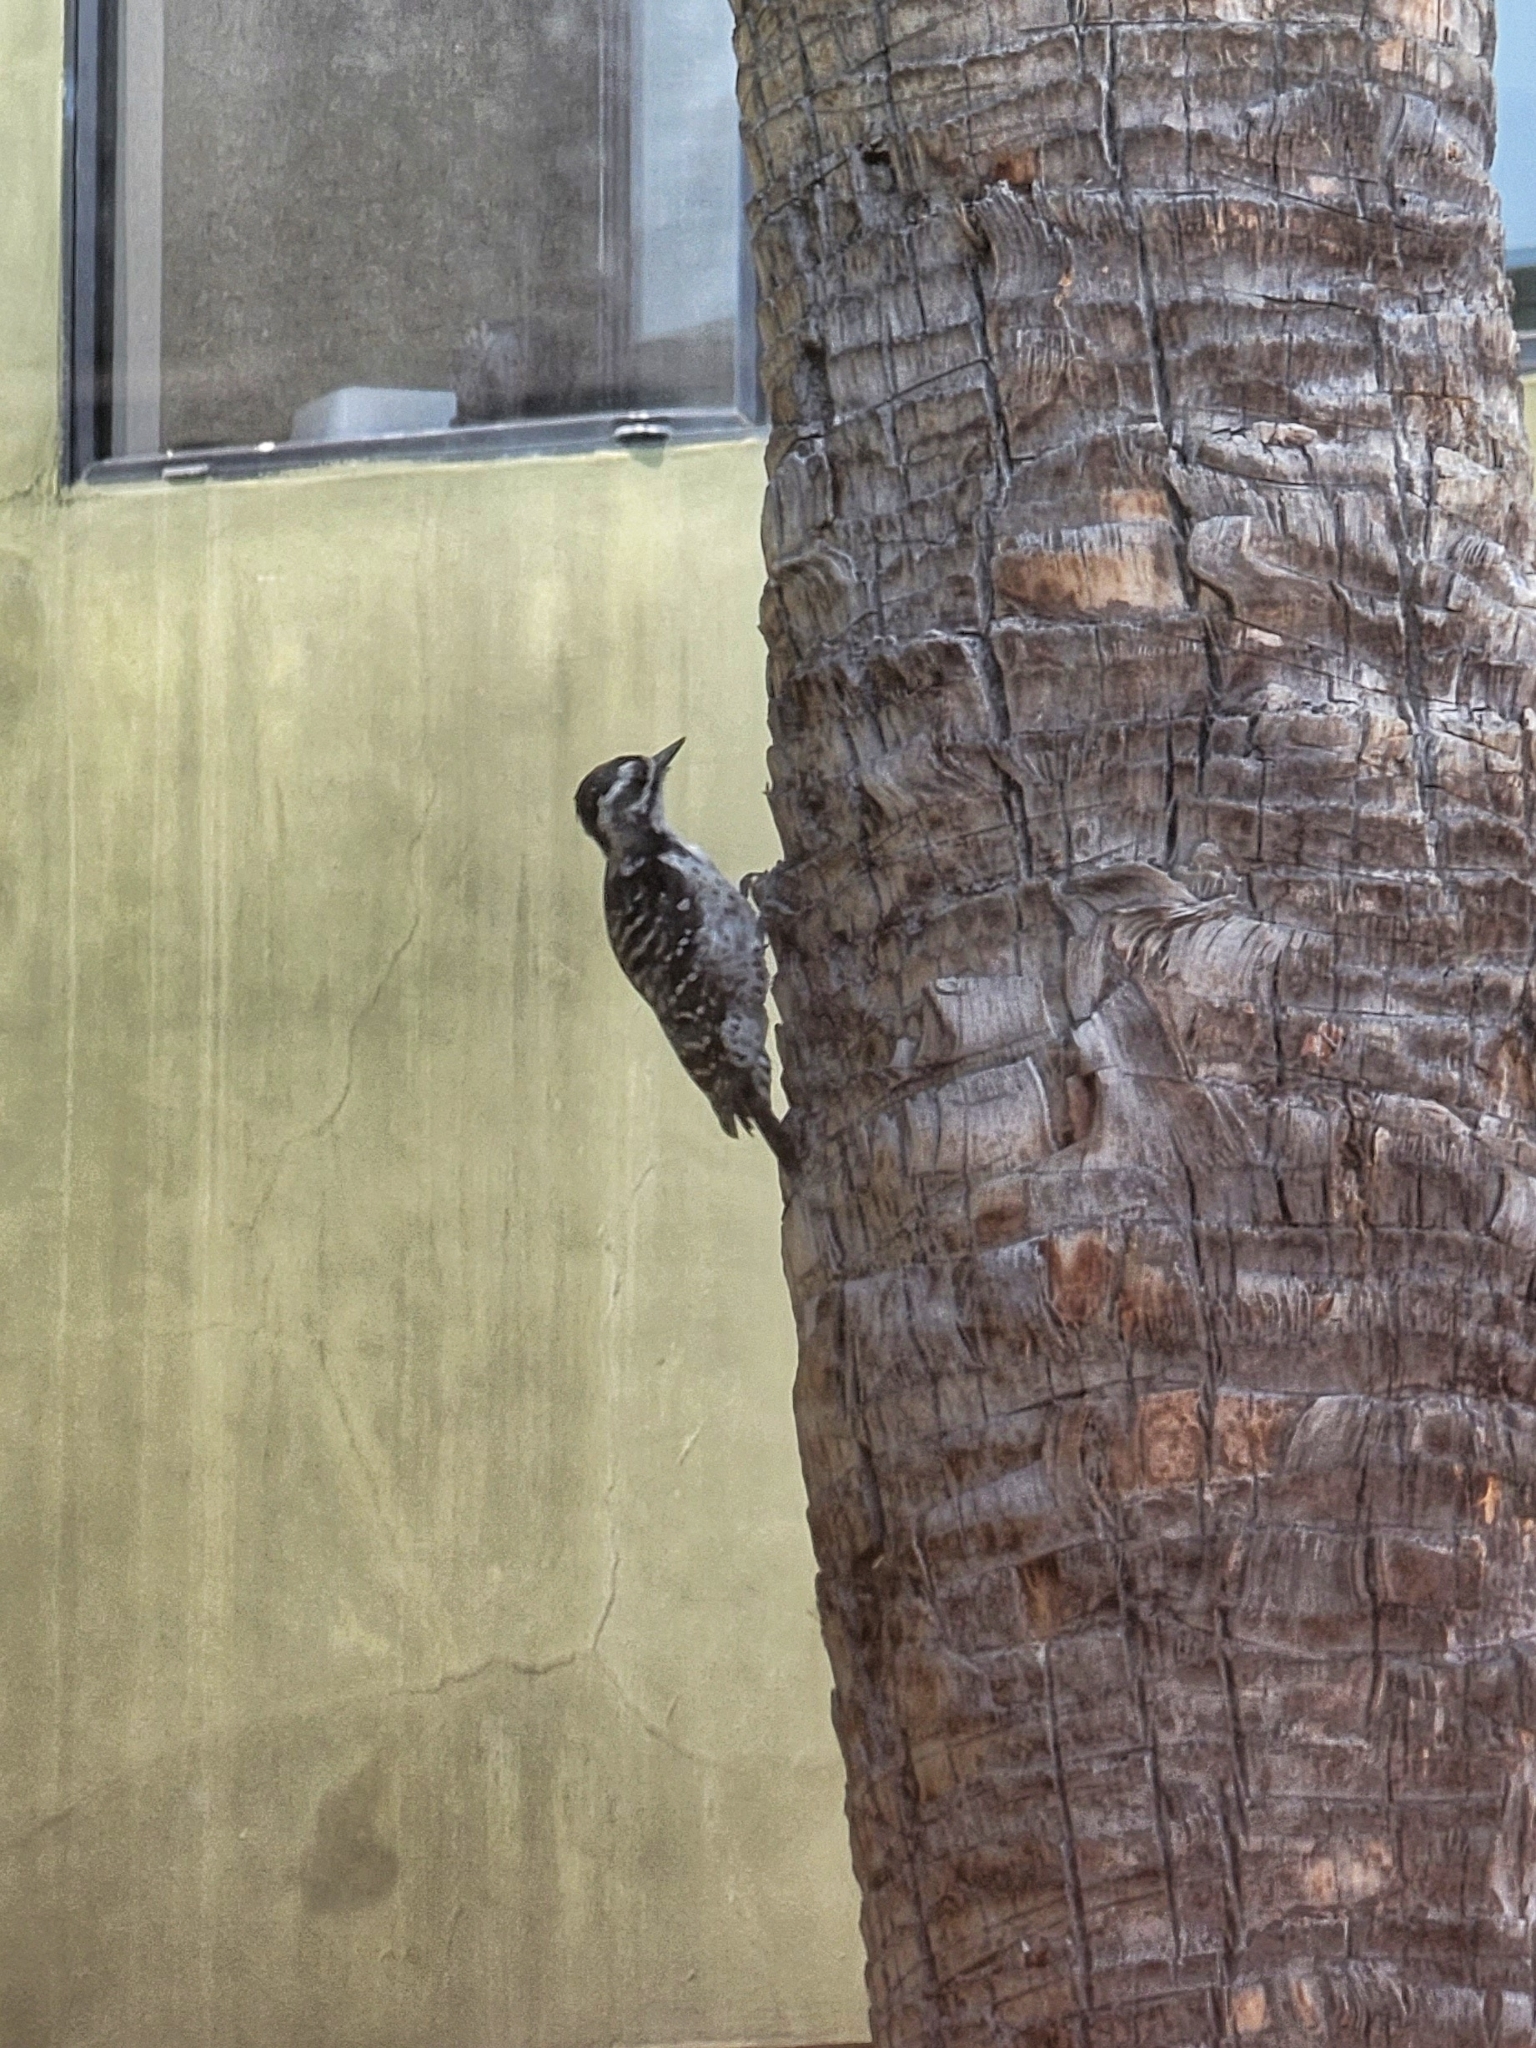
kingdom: Animalia
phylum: Chordata
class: Aves
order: Piciformes
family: Picidae
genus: Dryobates
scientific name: Dryobates nuttallii
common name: Nuttall's woodpecker
